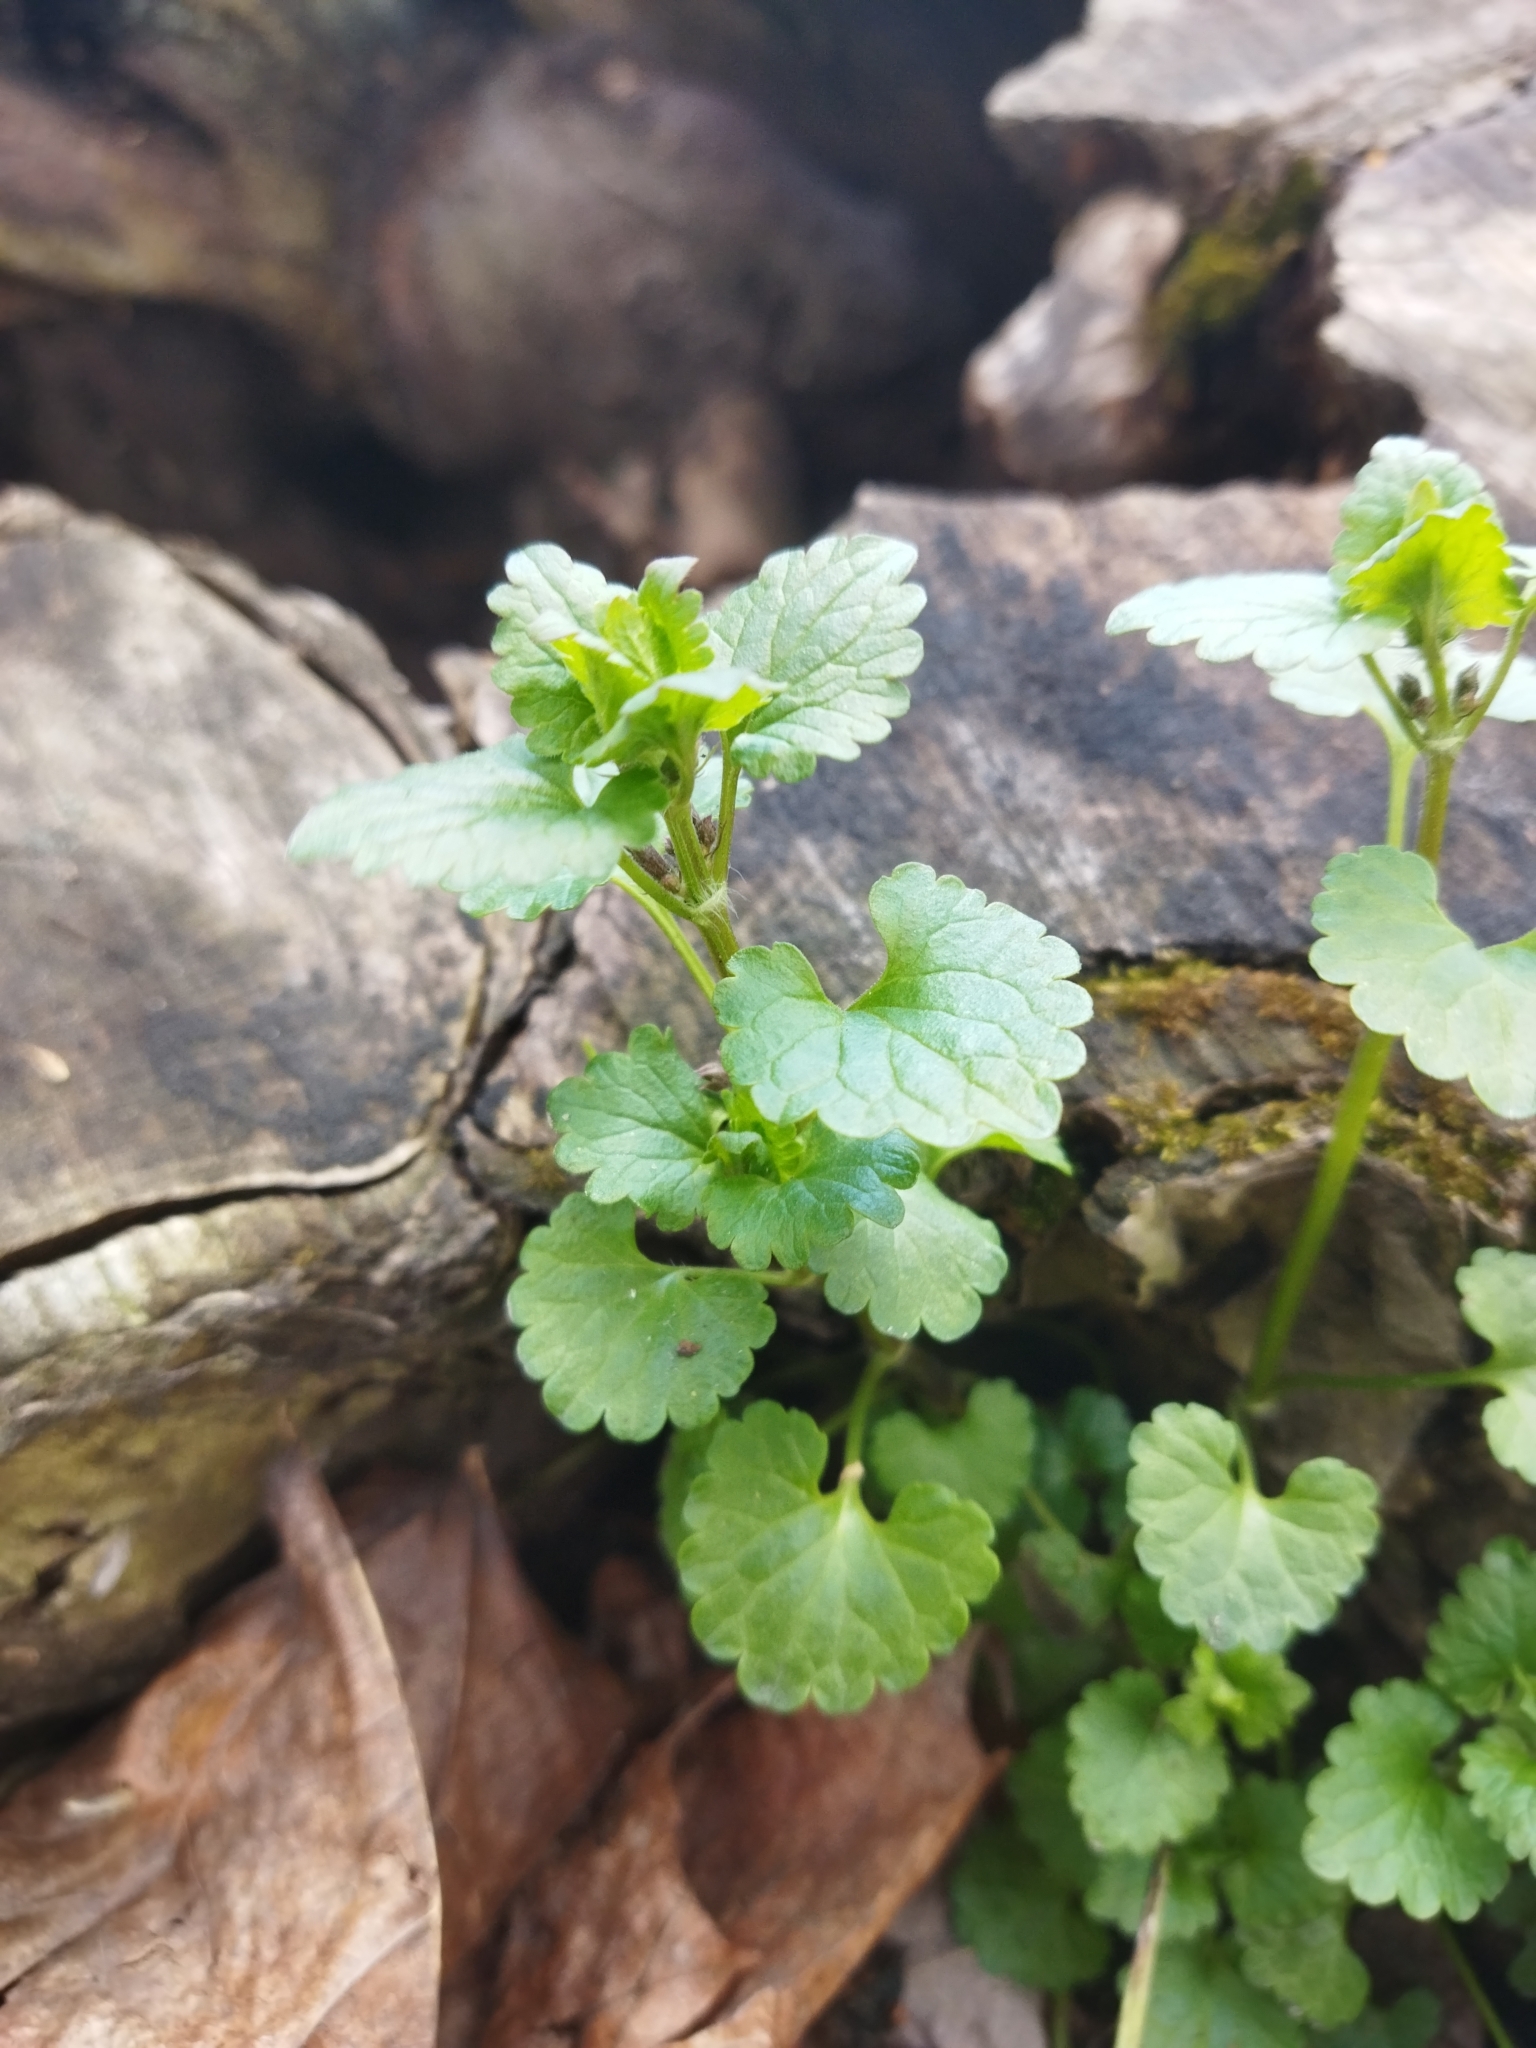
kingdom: Plantae
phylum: Tracheophyta
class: Magnoliopsida
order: Lamiales
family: Lamiaceae
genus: Glechoma
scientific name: Glechoma hederacea
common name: Ground ivy
